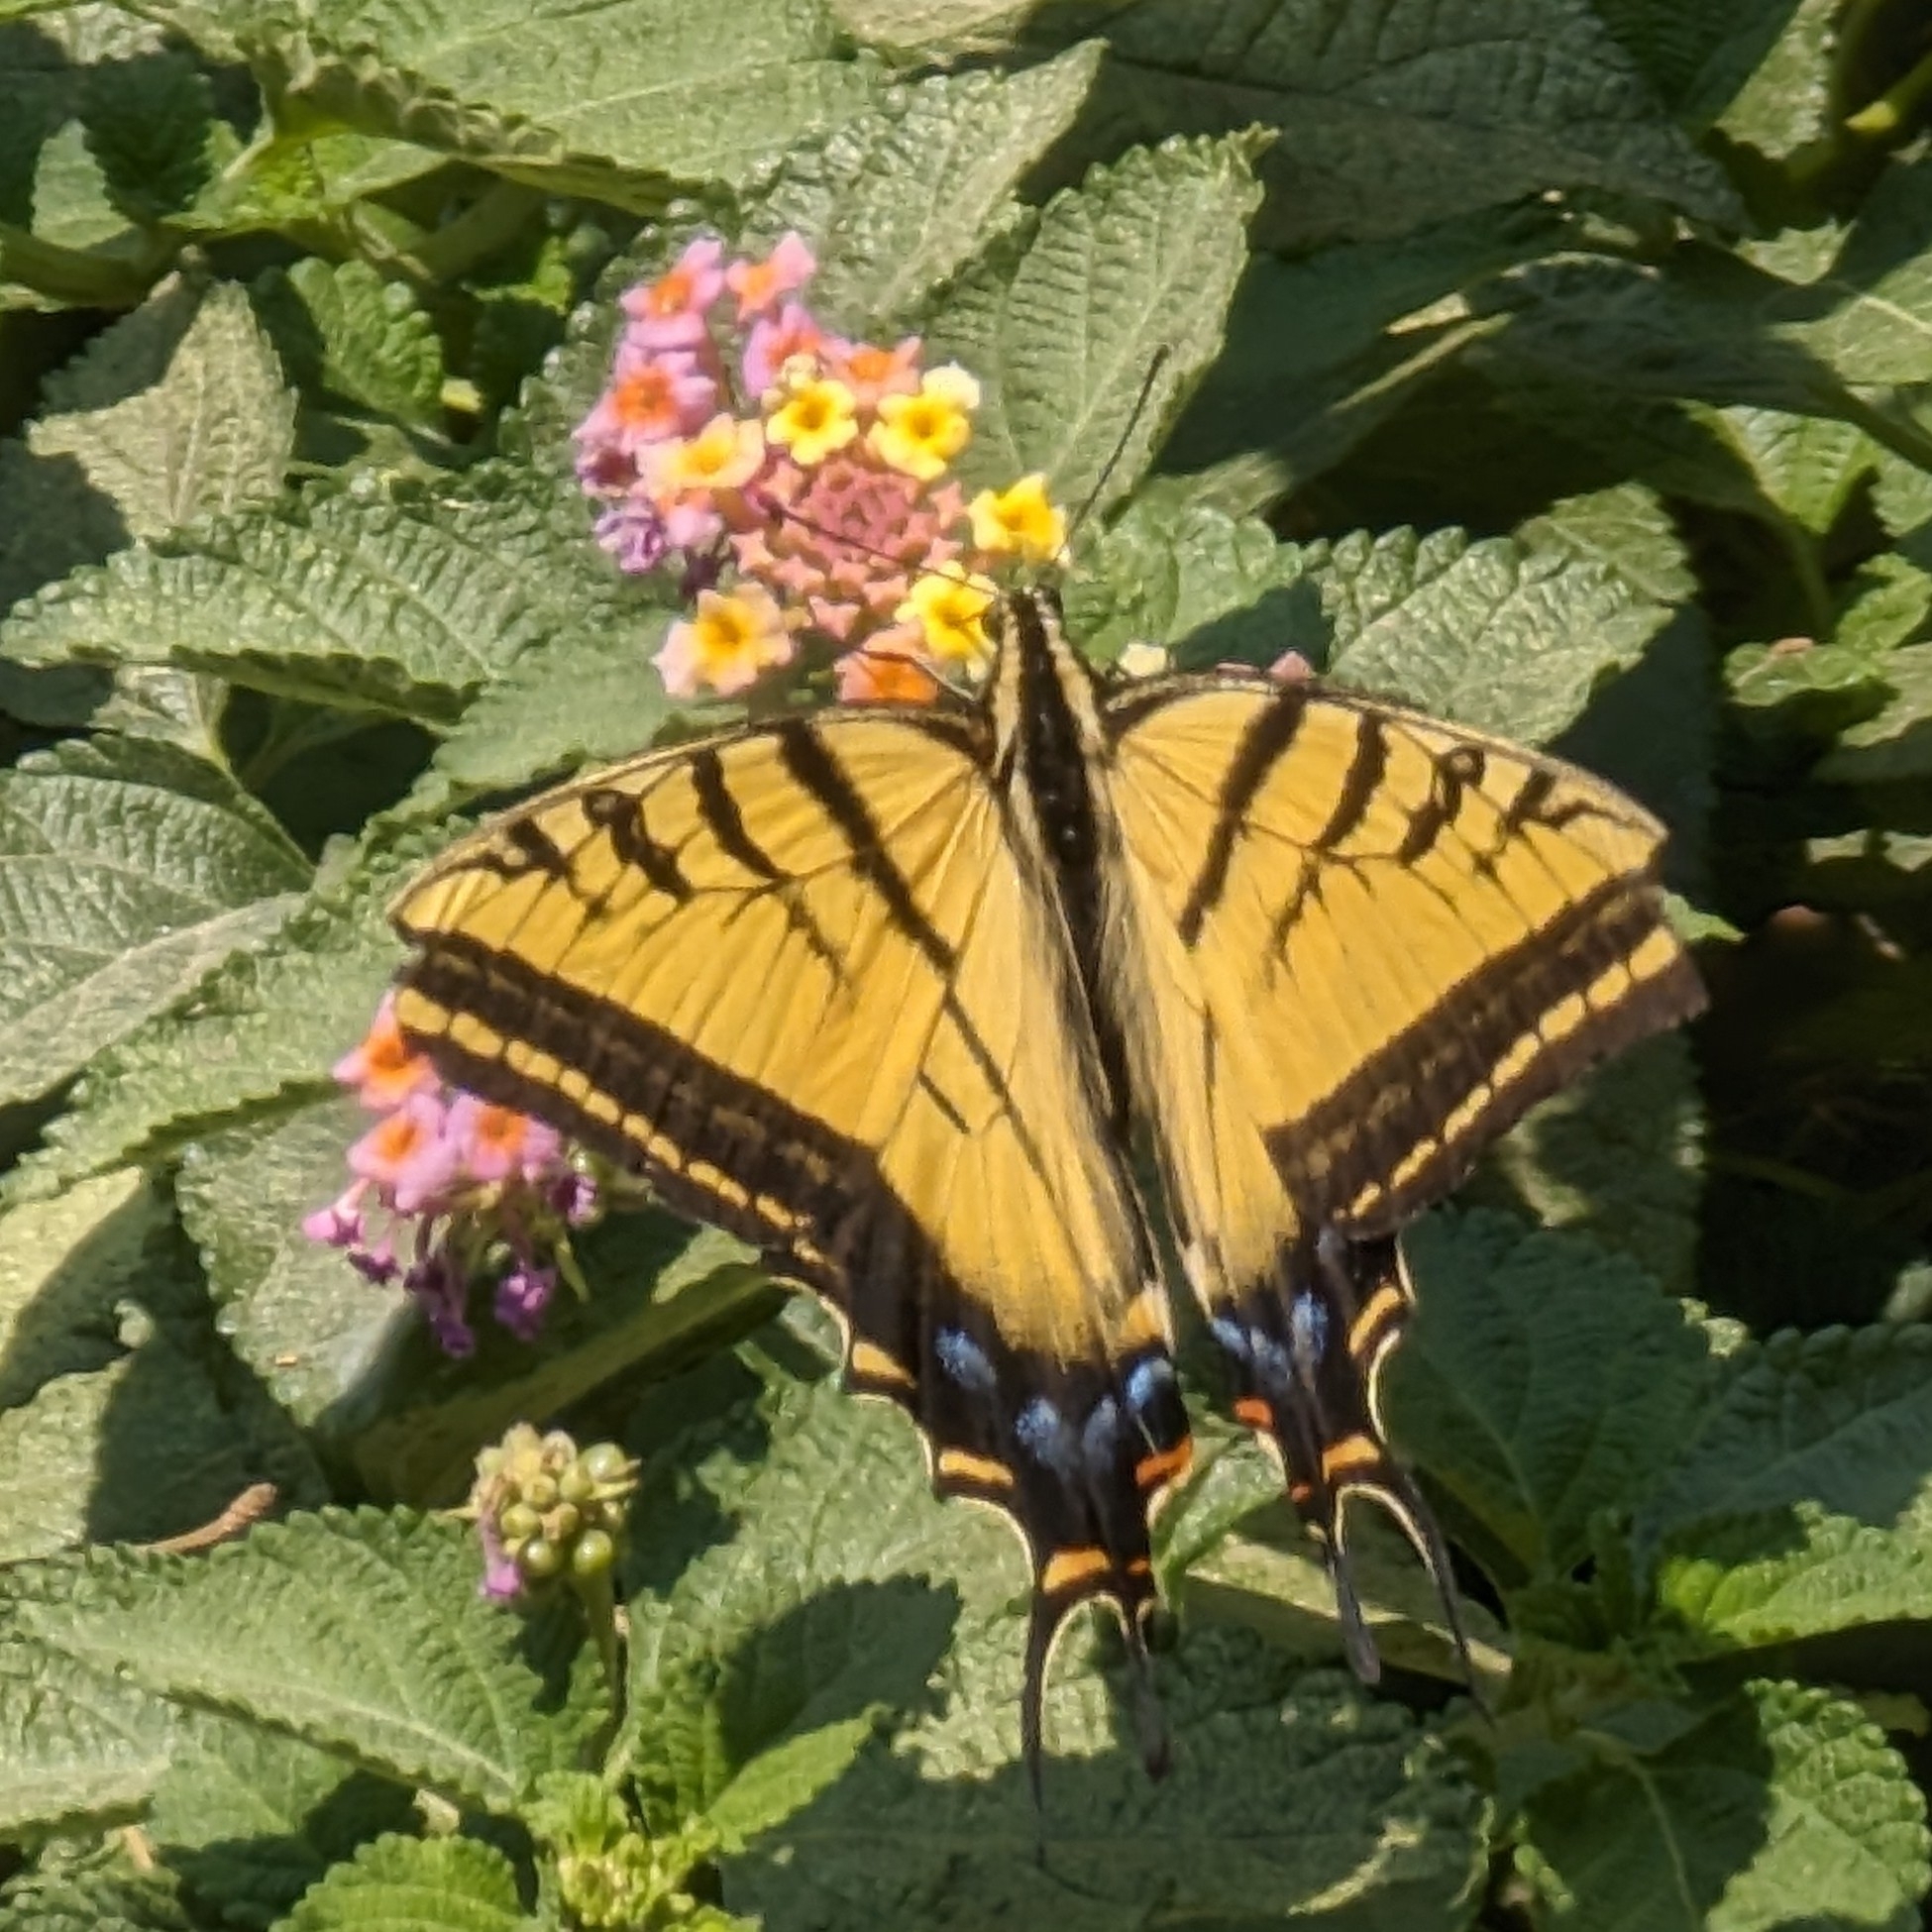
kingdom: Animalia
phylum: Arthropoda
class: Insecta
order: Lepidoptera
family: Papilionidae
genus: Papilio
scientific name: Papilio multicaudata
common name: Two-tailed tiger swallowtail
